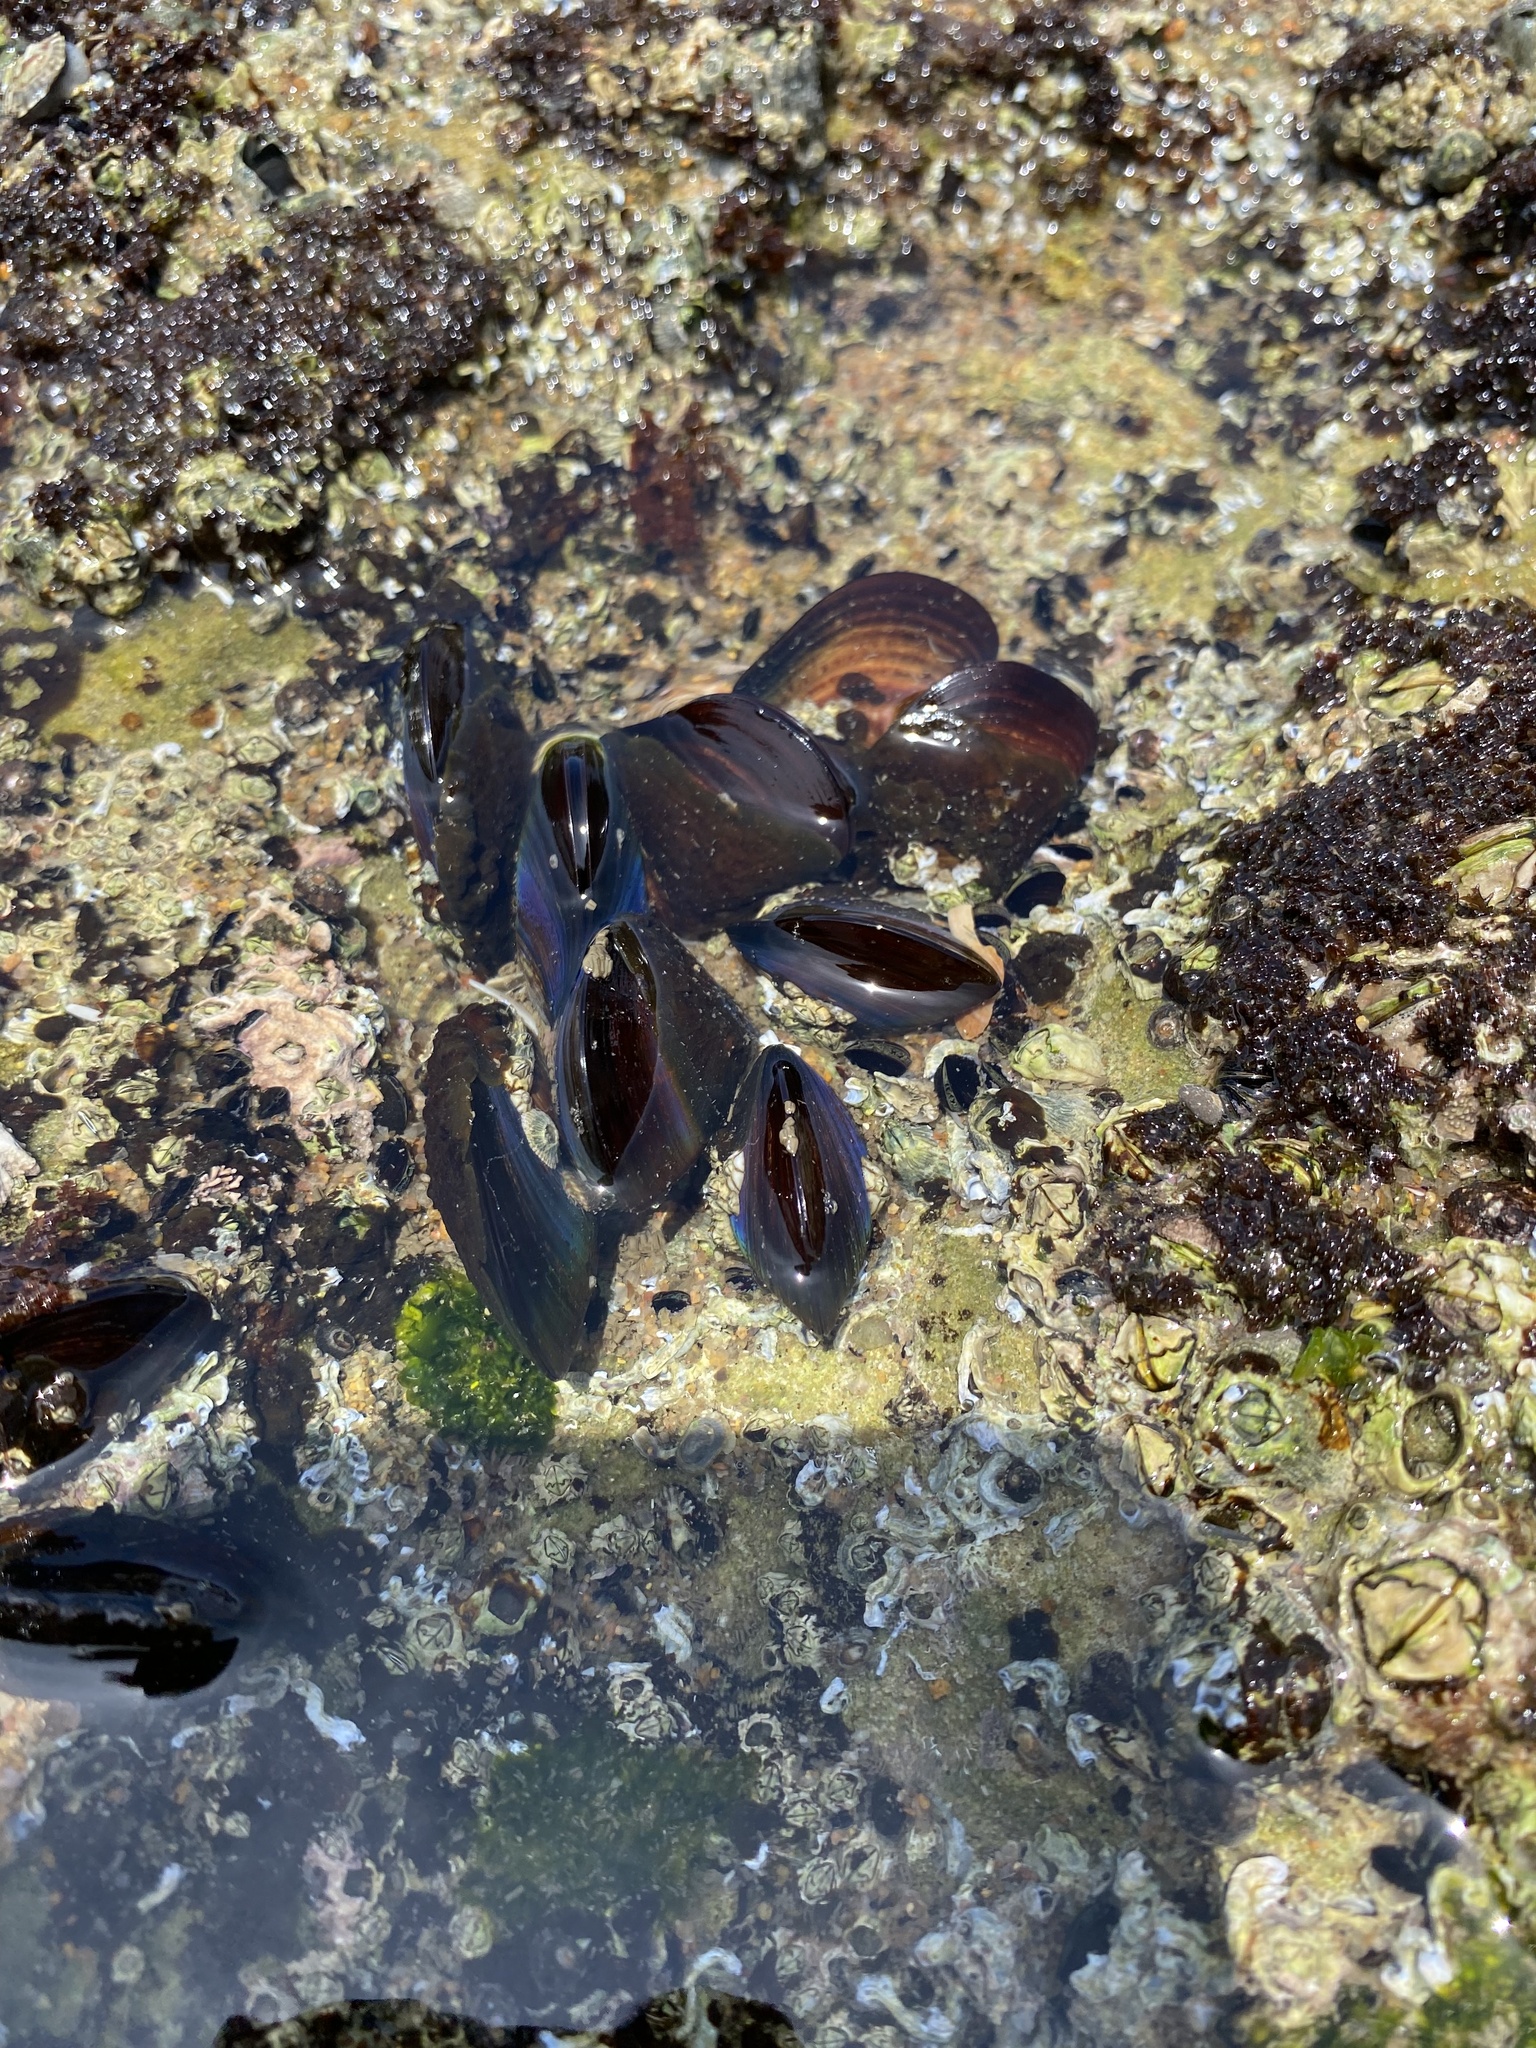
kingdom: Animalia
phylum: Mollusca
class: Bivalvia
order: Mytilida
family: Mytilidae
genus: Perna
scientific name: Perna perna
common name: Mexilhao mussel
